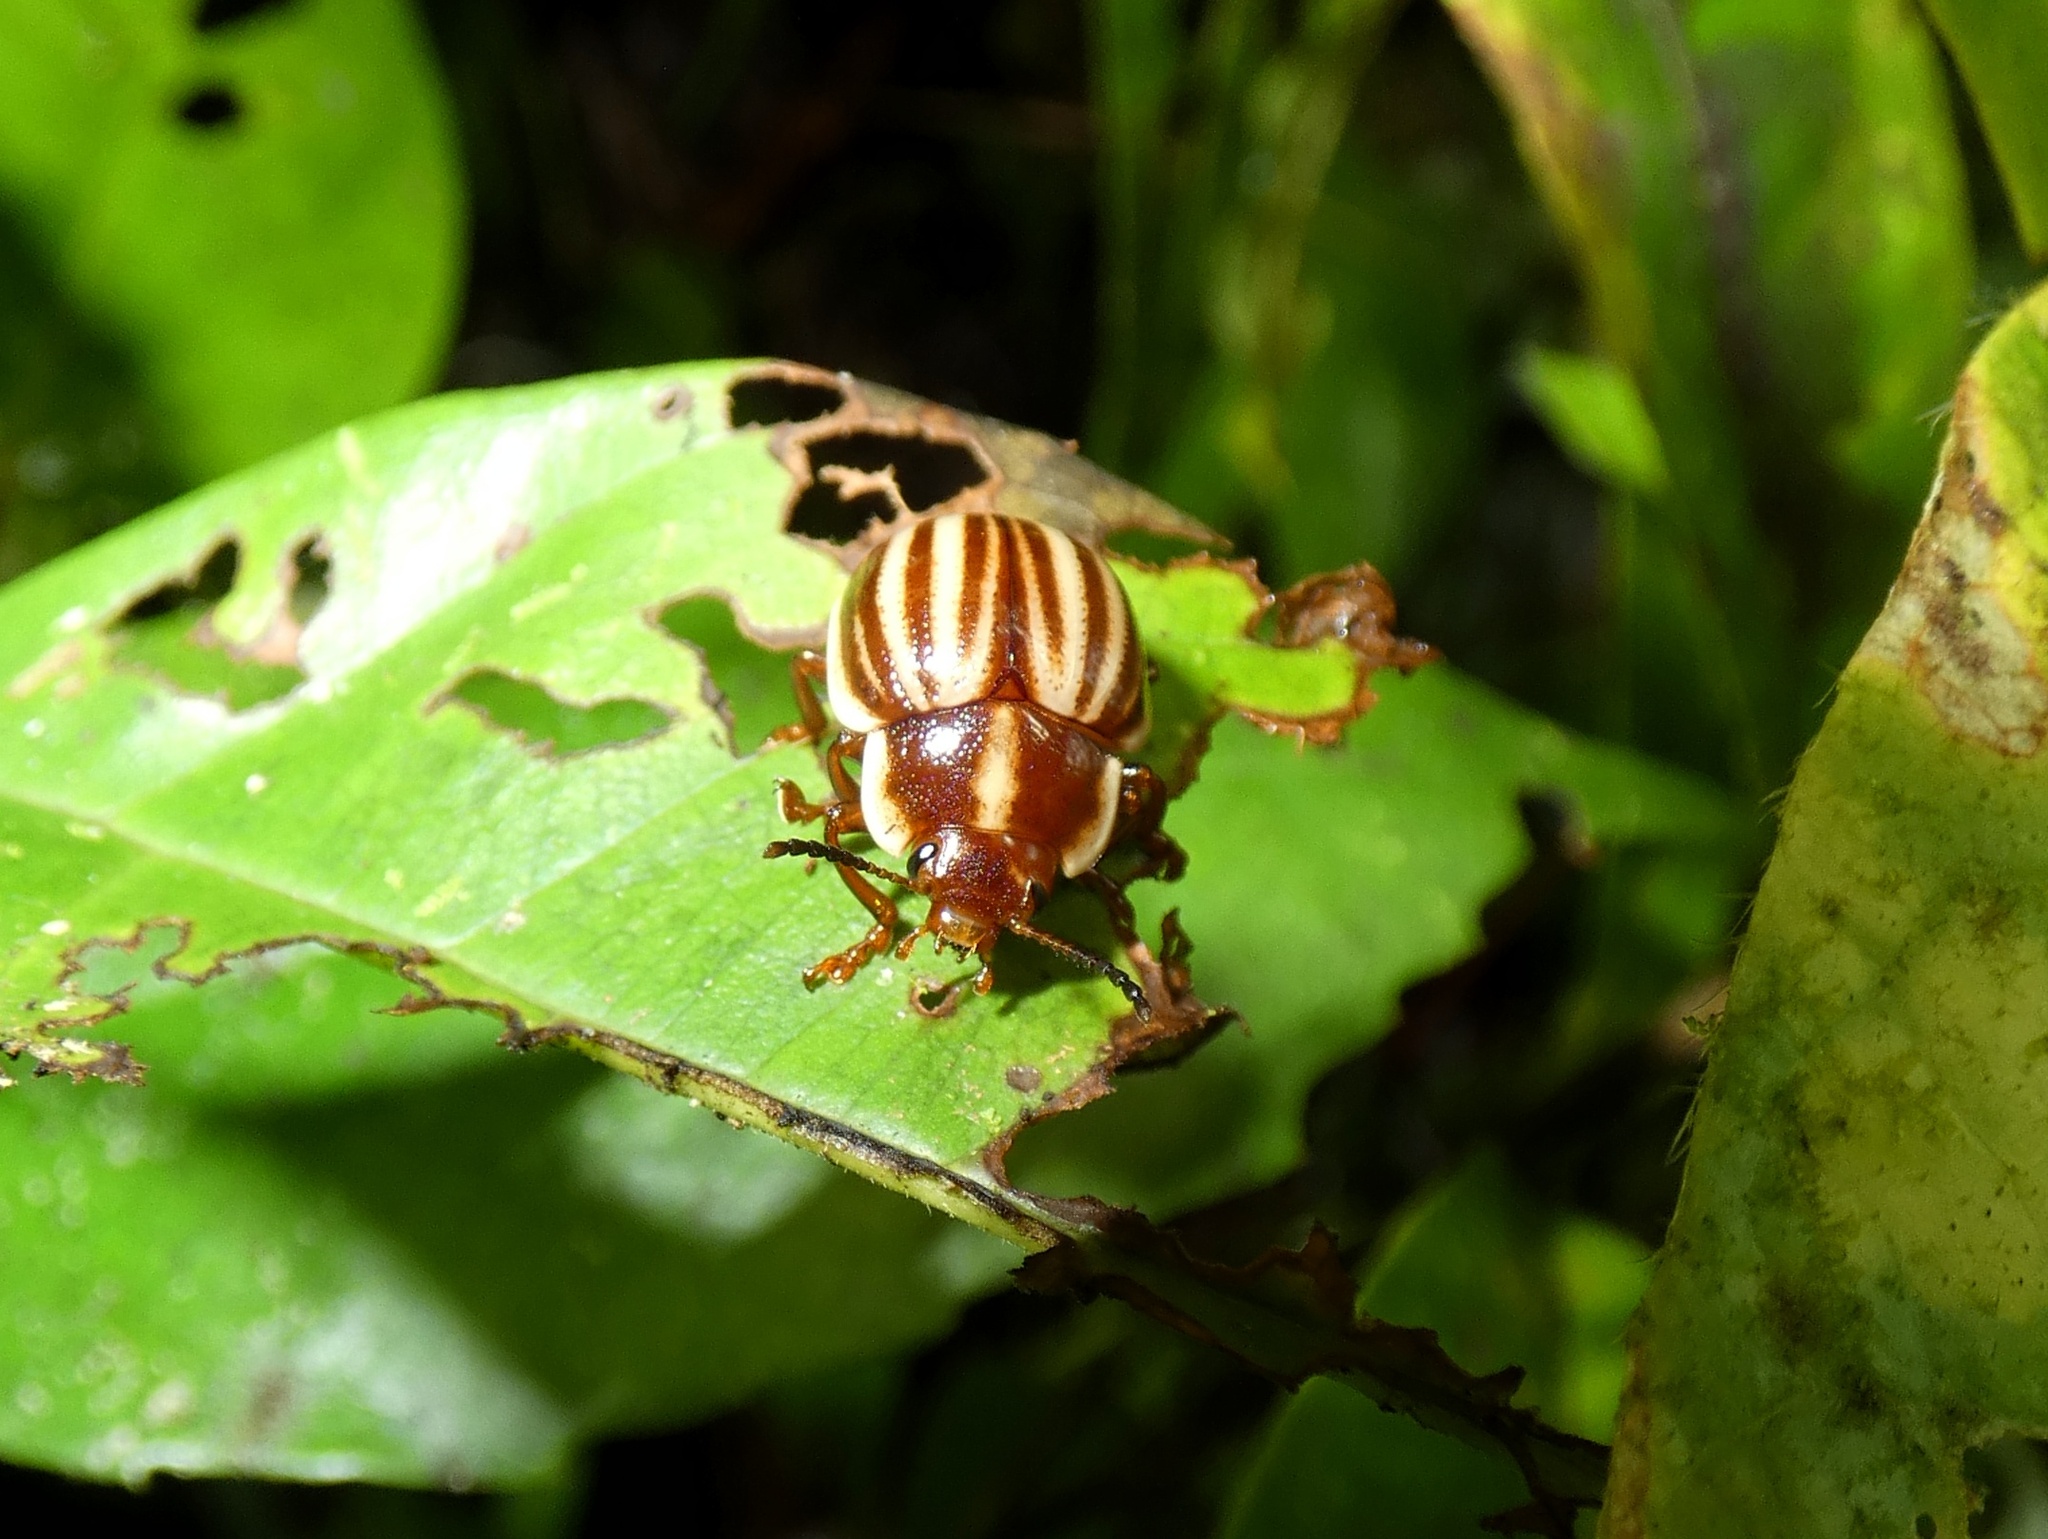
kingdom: Animalia
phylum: Arthropoda
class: Insecta
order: Coleoptera
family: Chrysomelidae
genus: Platyphora
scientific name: Platyphora
